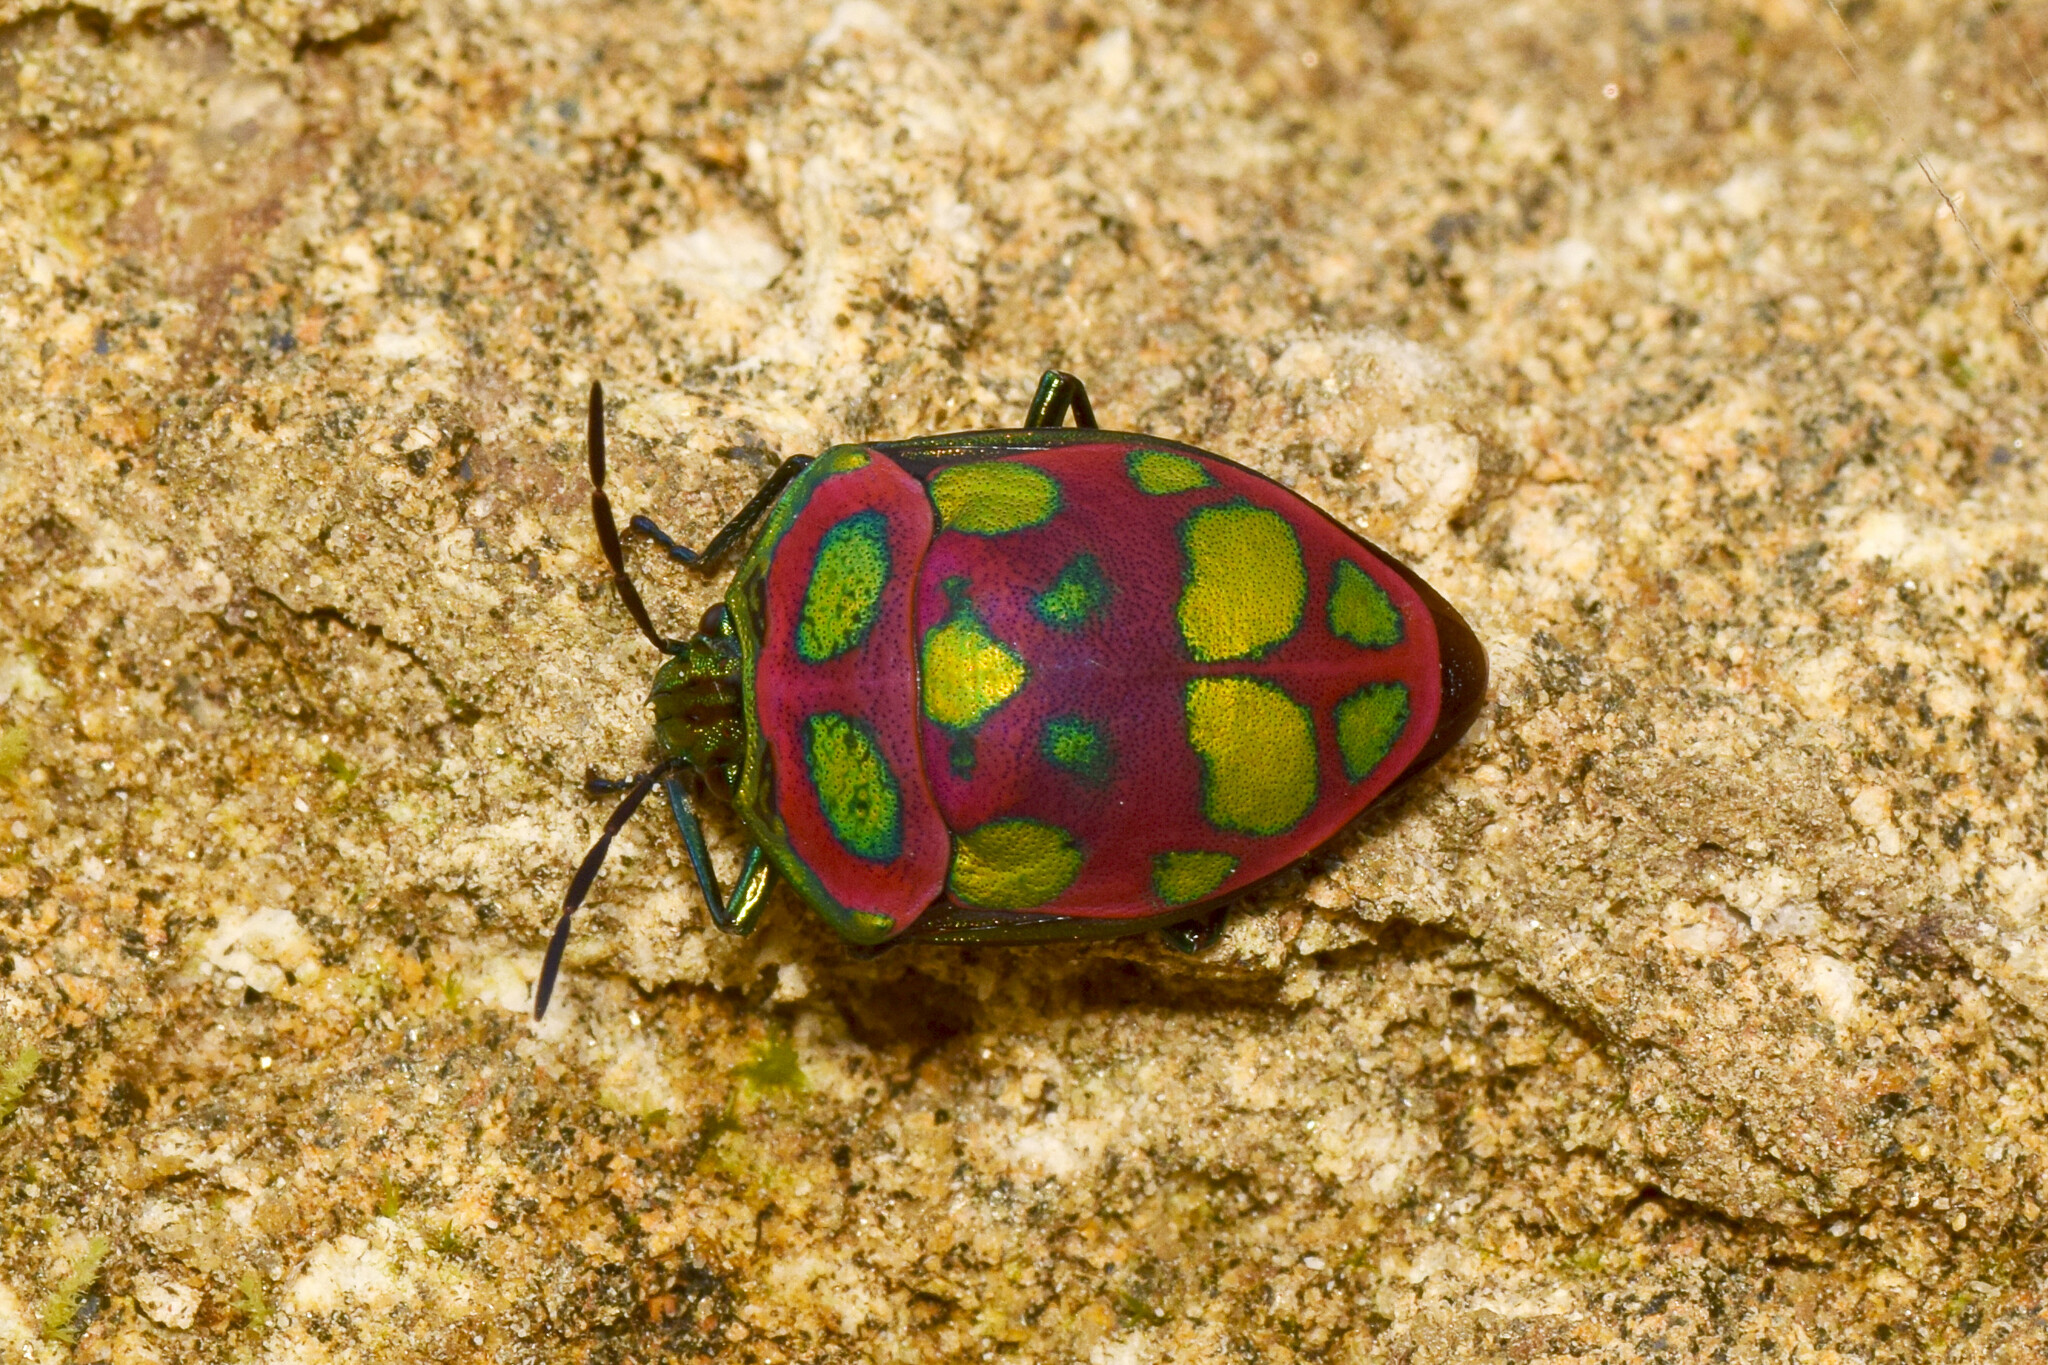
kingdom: Animalia
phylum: Arthropoda
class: Insecta
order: Hemiptera
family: Scutelleridae
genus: Poecilocoris
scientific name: Poecilocoris
